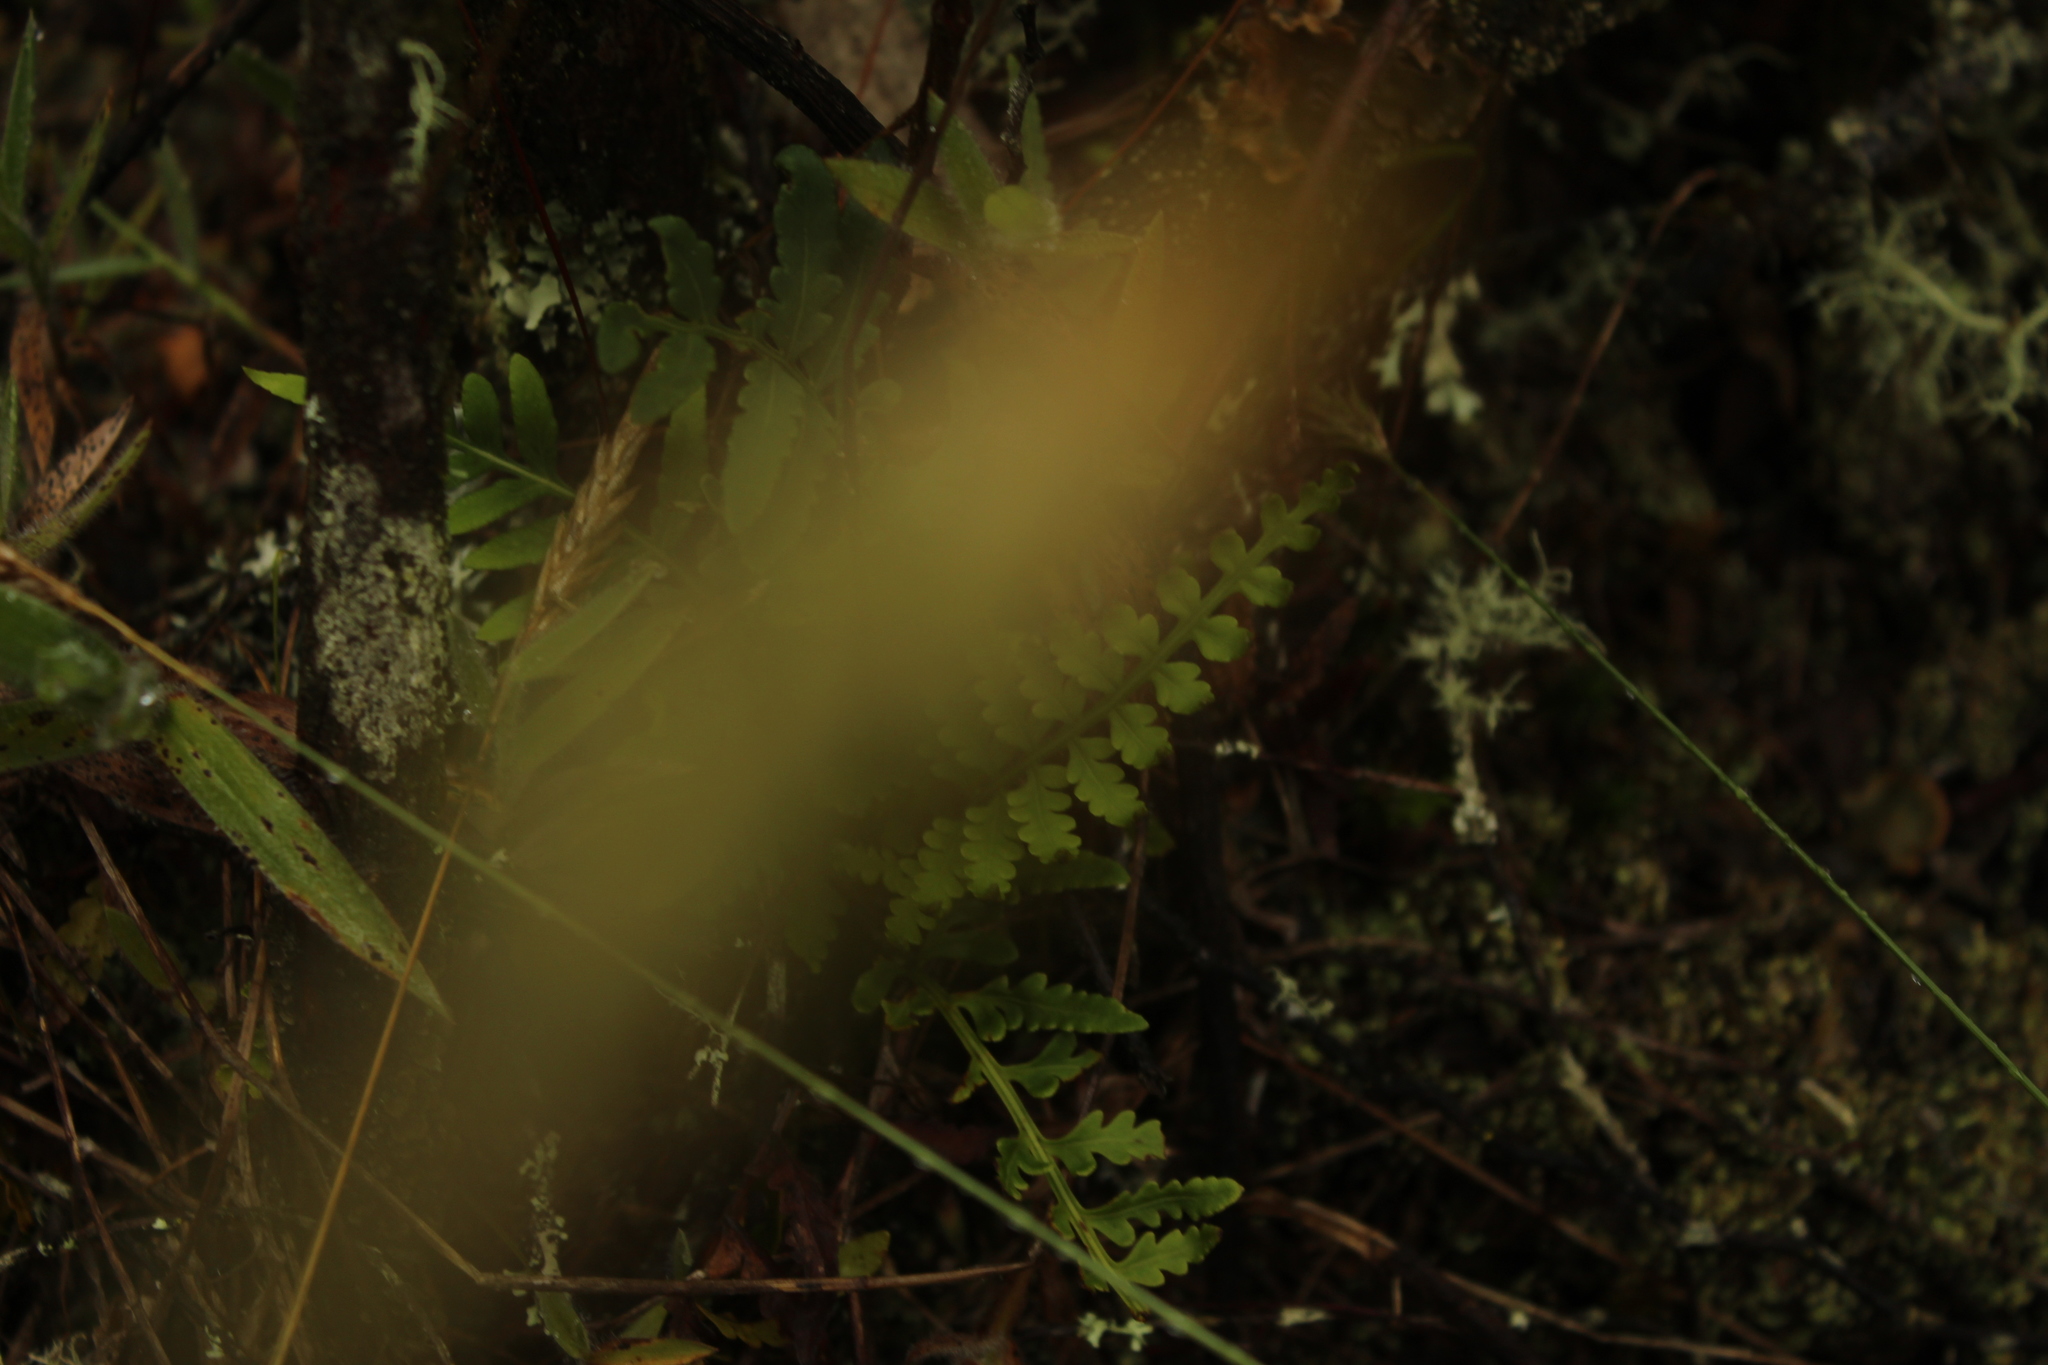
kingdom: Plantae
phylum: Tracheophyta
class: Polypodiopsida
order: Polypodiales
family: Polypodiaceae
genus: Pleopeltis
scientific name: Pleopeltis murora
